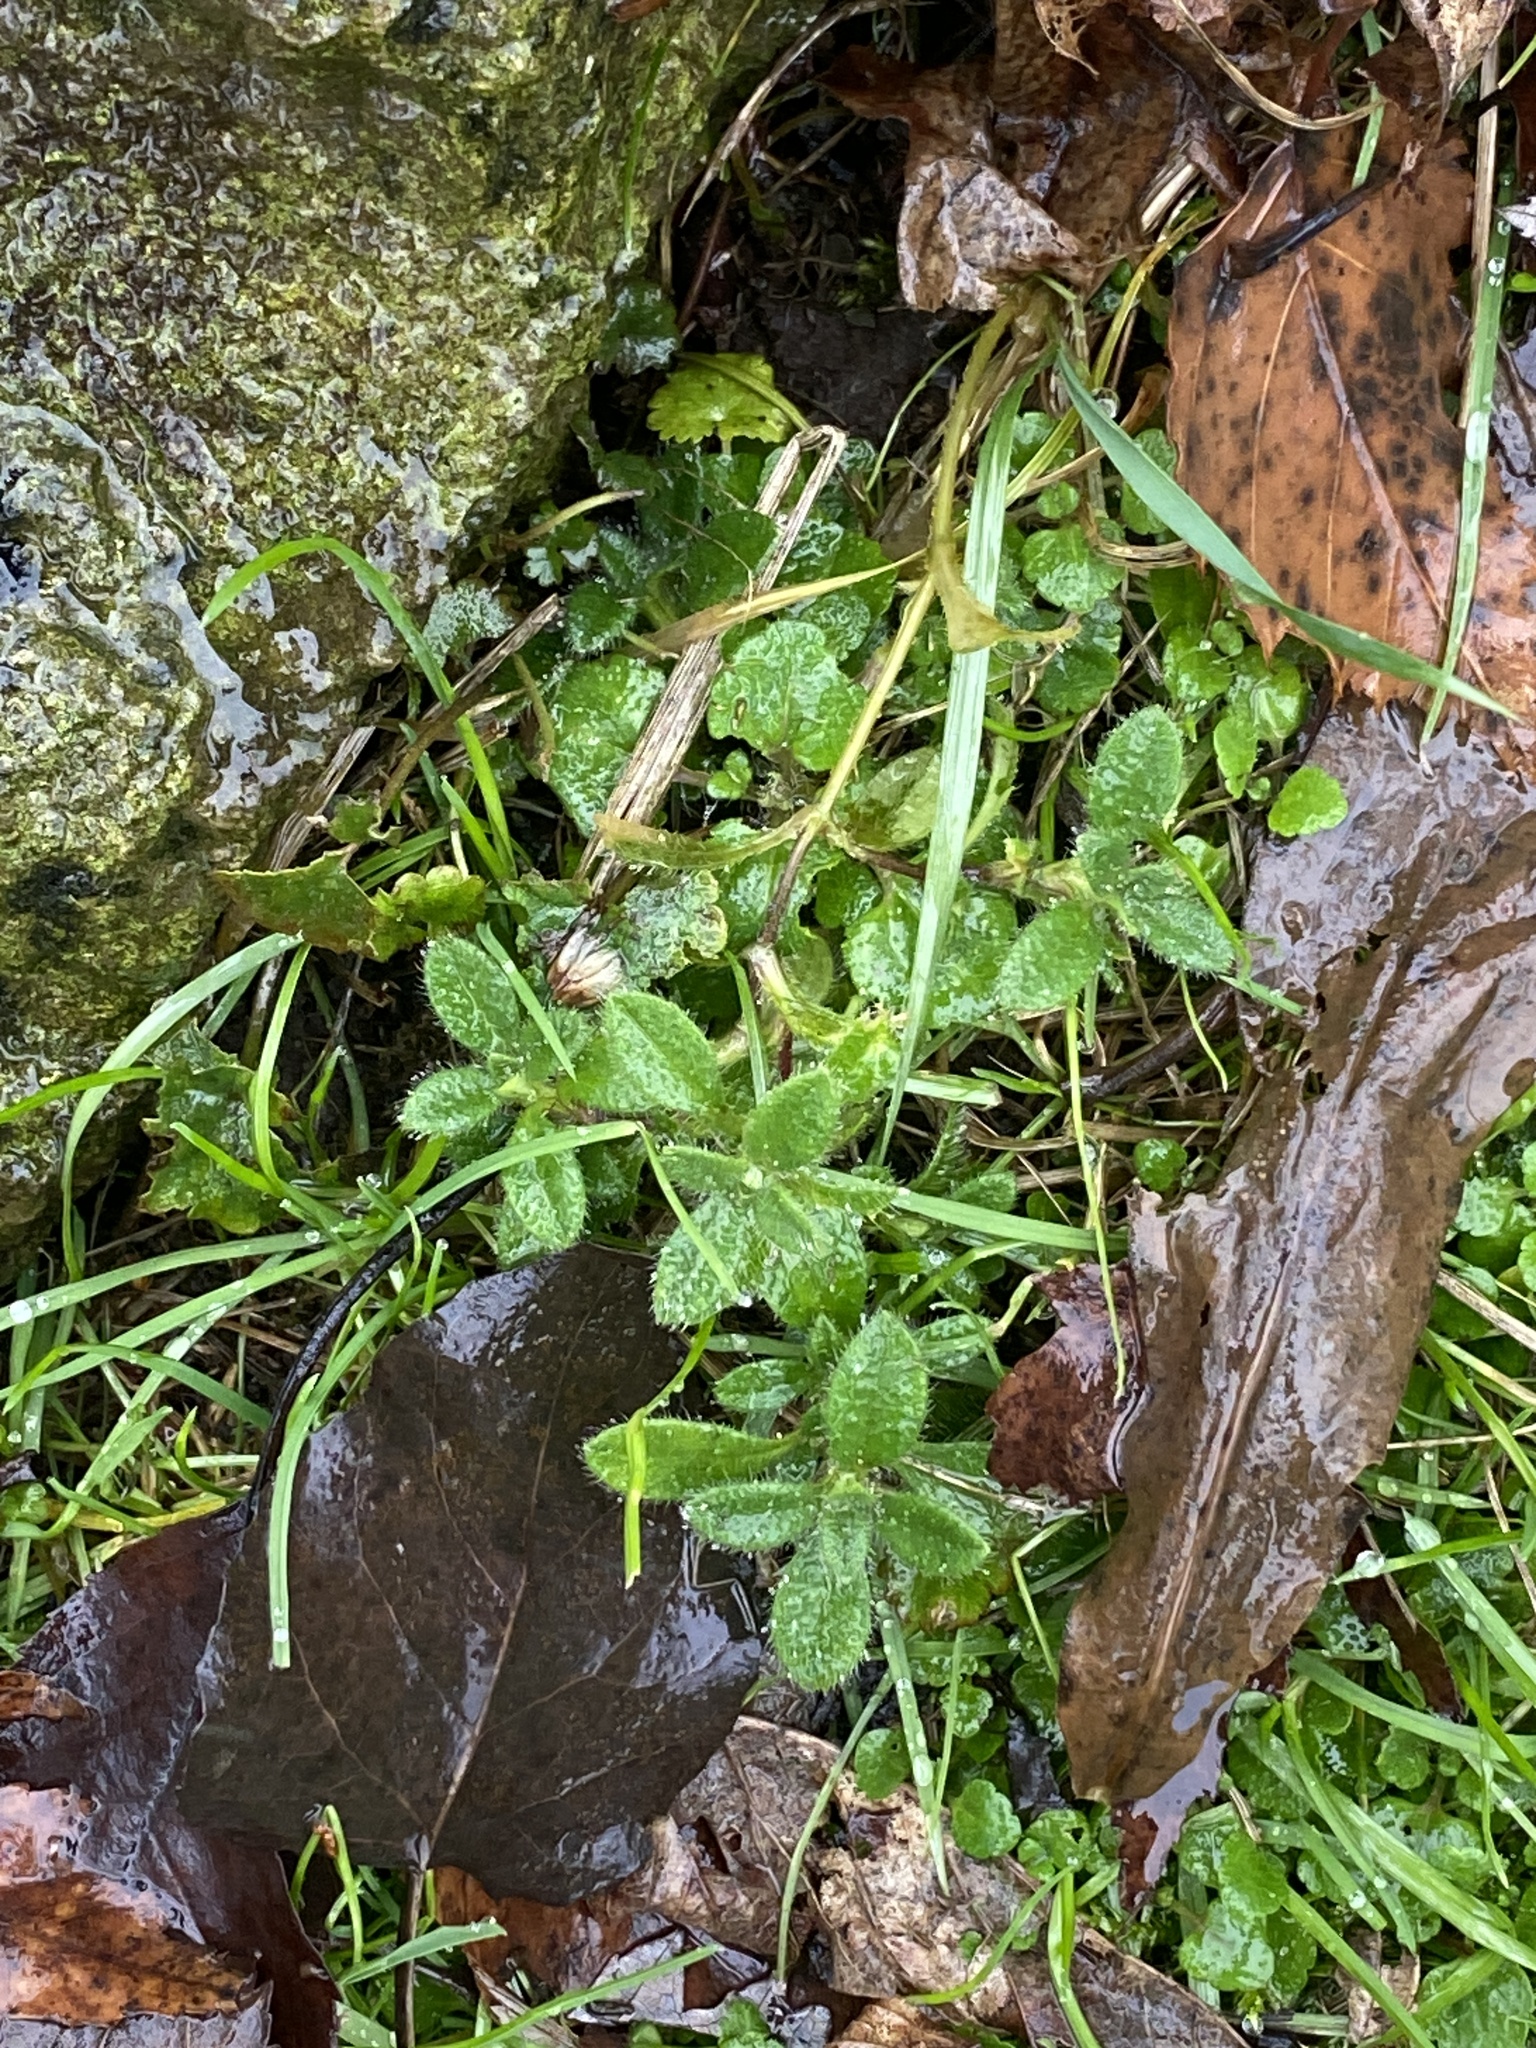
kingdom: Plantae
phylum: Tracheophyta
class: Magnoliopsida
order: Caryophyllales
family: Caryophyllaceae
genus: Cerastium
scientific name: Cerastium fontanum
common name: Common mouse-ear
